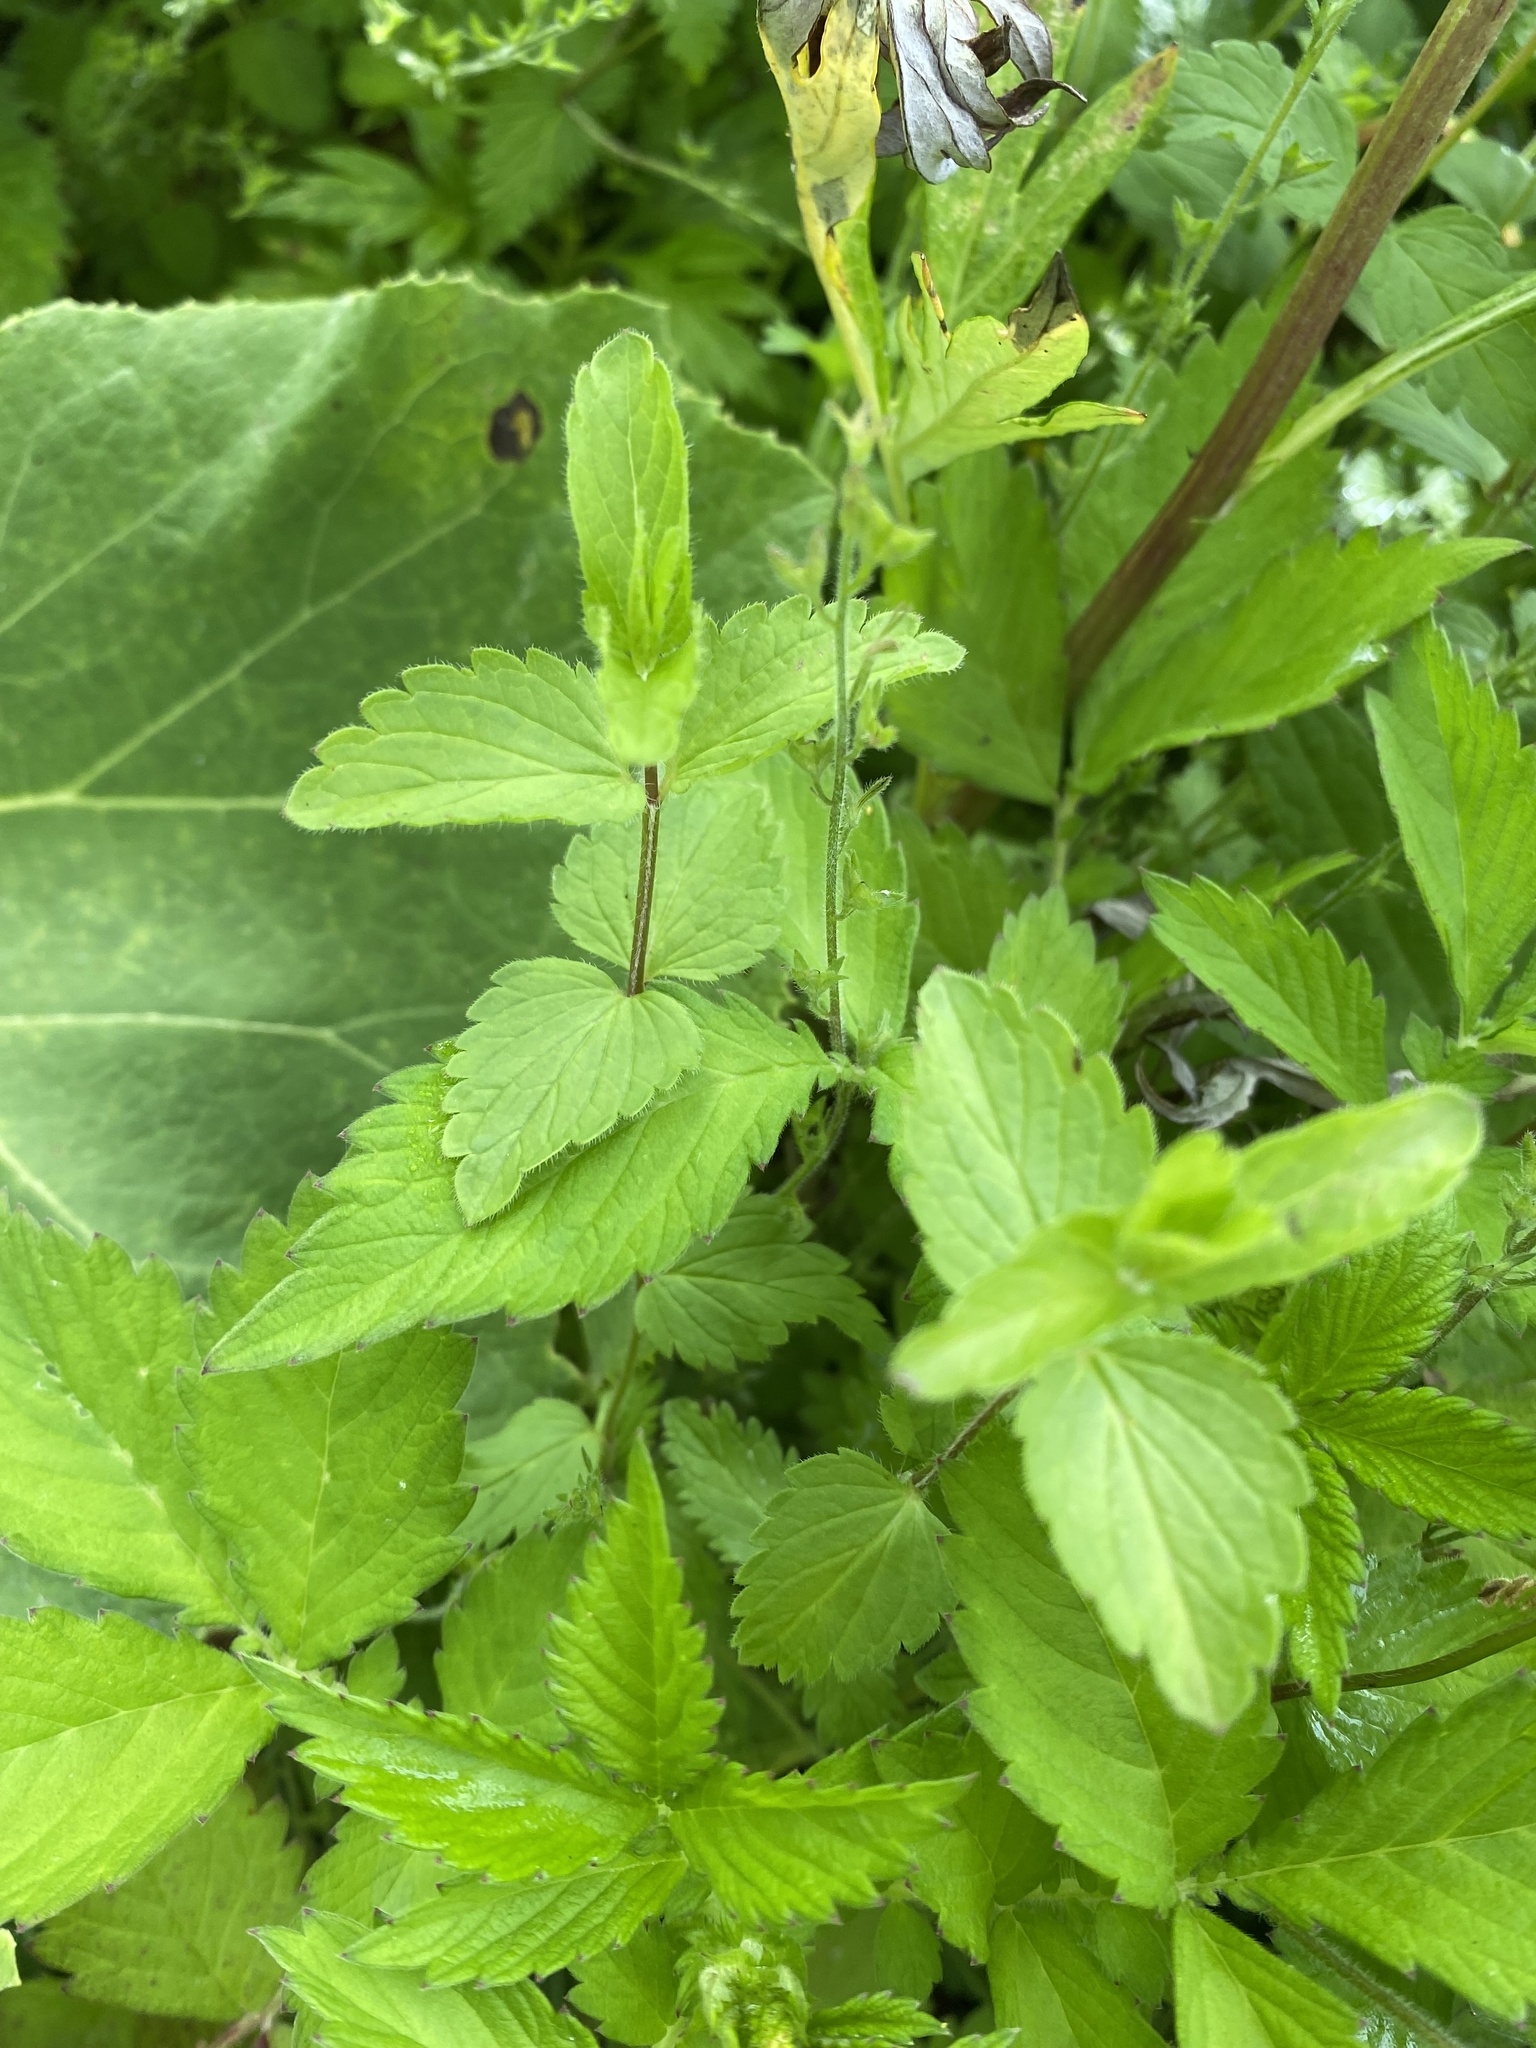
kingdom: Plantae
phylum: Tracheophyta
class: Magnoliopsida
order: Lamiales
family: Plantaginaceae
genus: Veronica
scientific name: Veronica chamaedrys
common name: Germander speedwell
